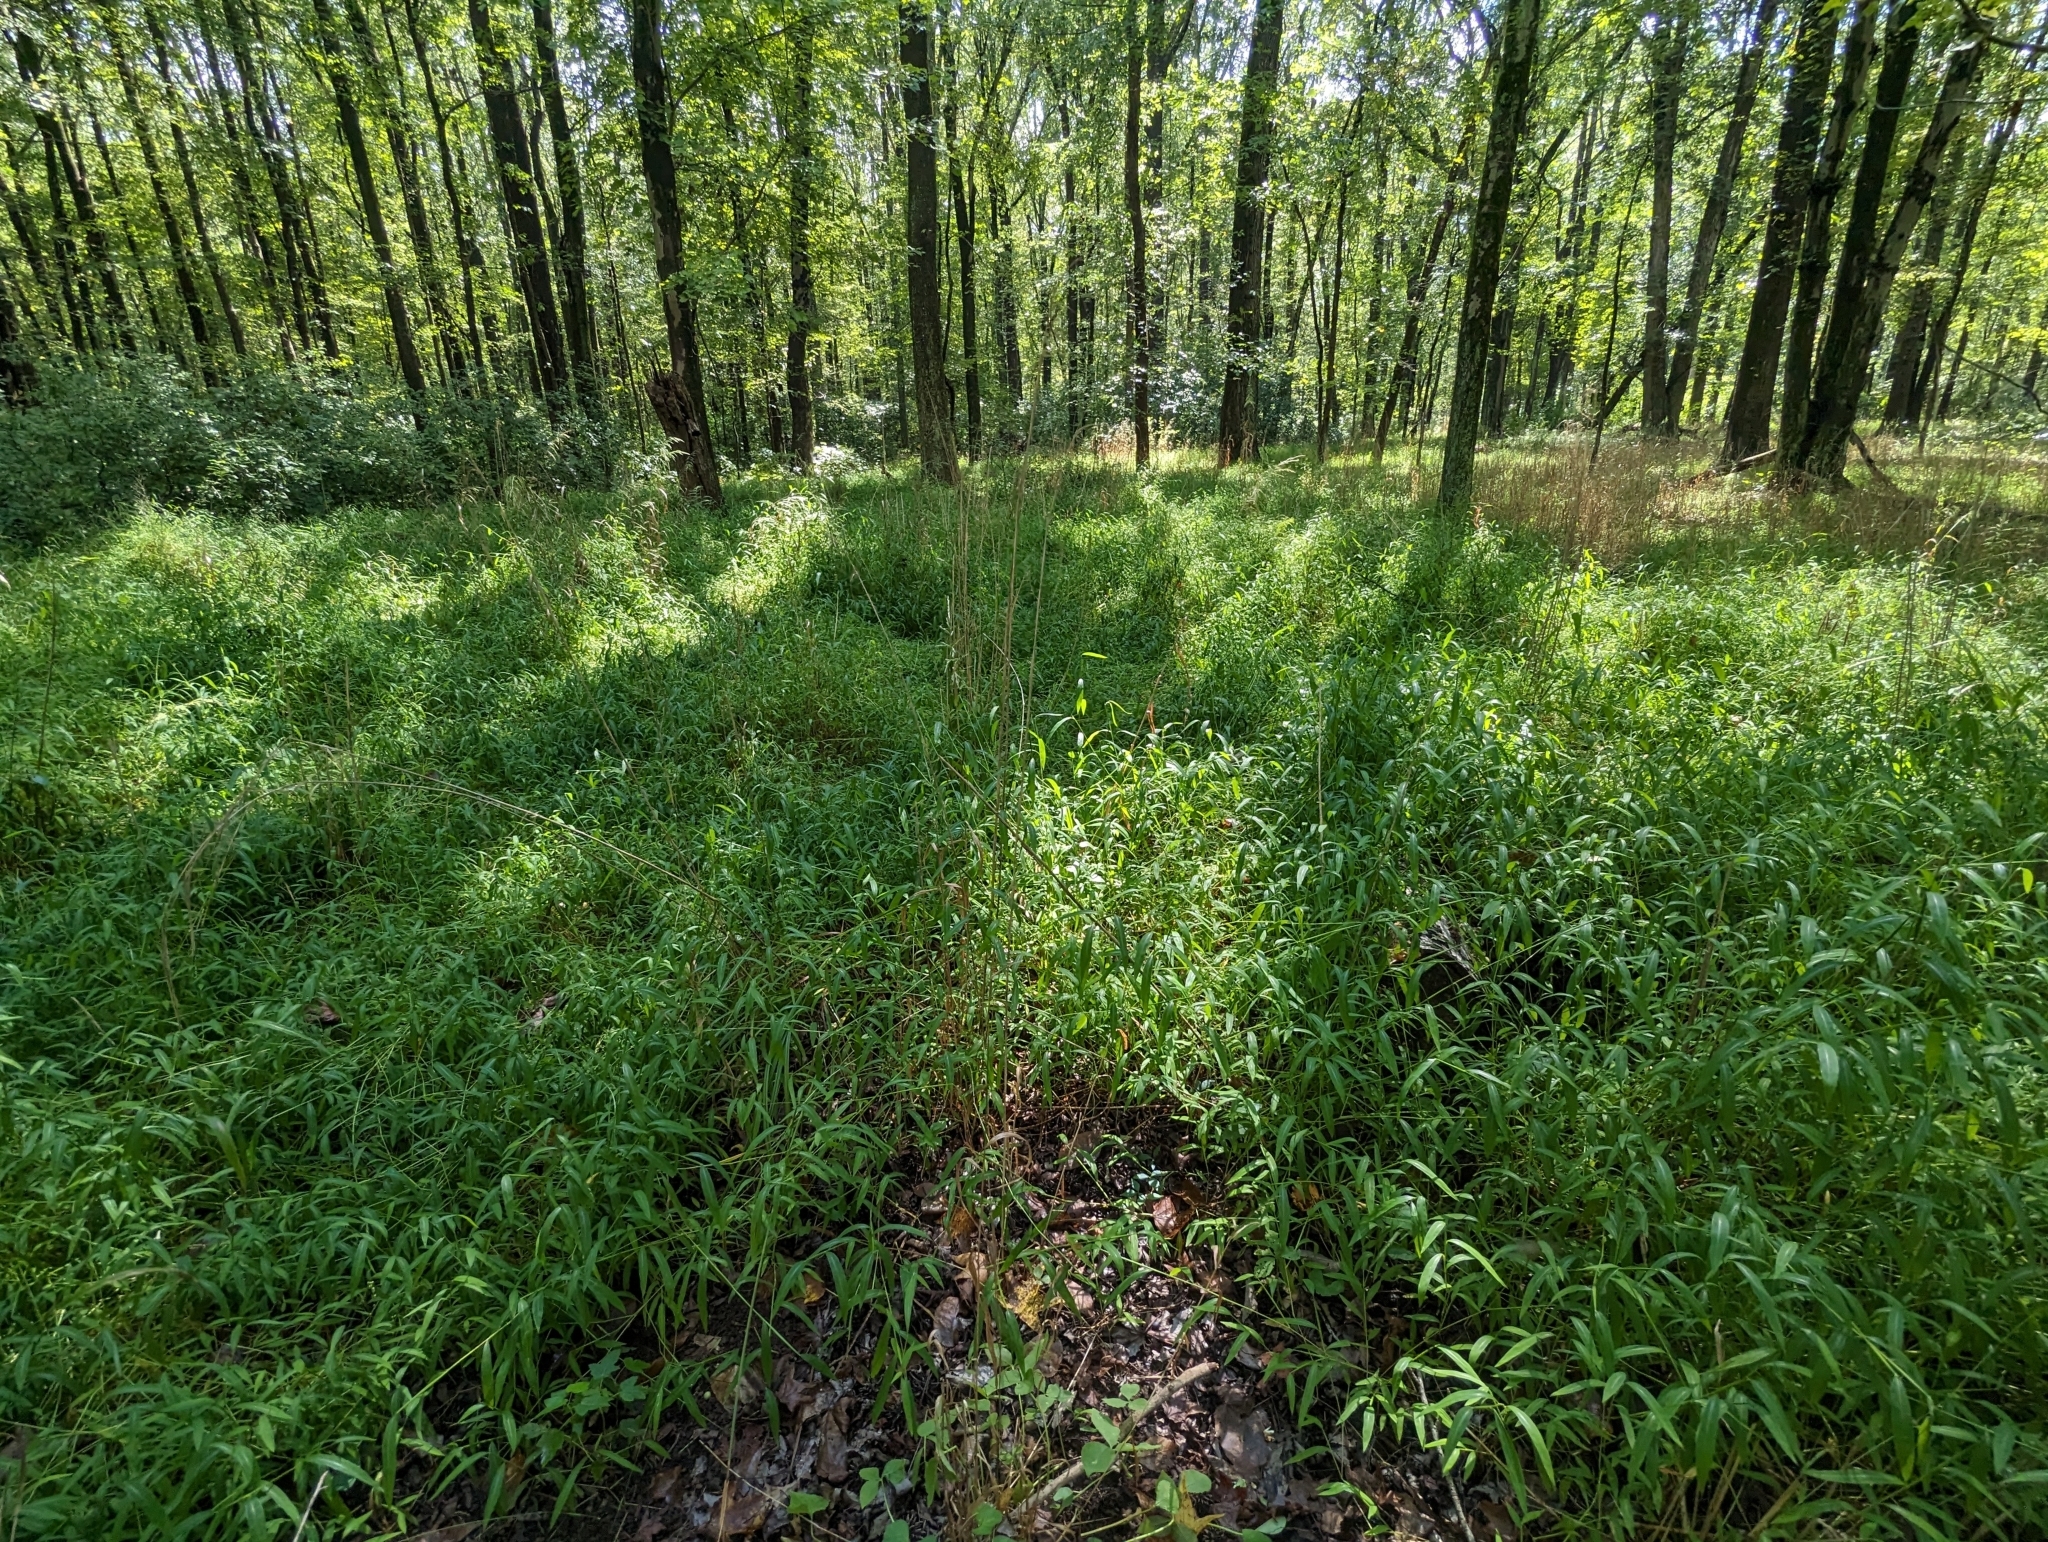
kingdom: Plantae
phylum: Tracheophyta
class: Liliopsida
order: Poales
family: Poaceae
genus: Microstegium
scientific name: Microstegium vimineum
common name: Japanese stiltgrass
